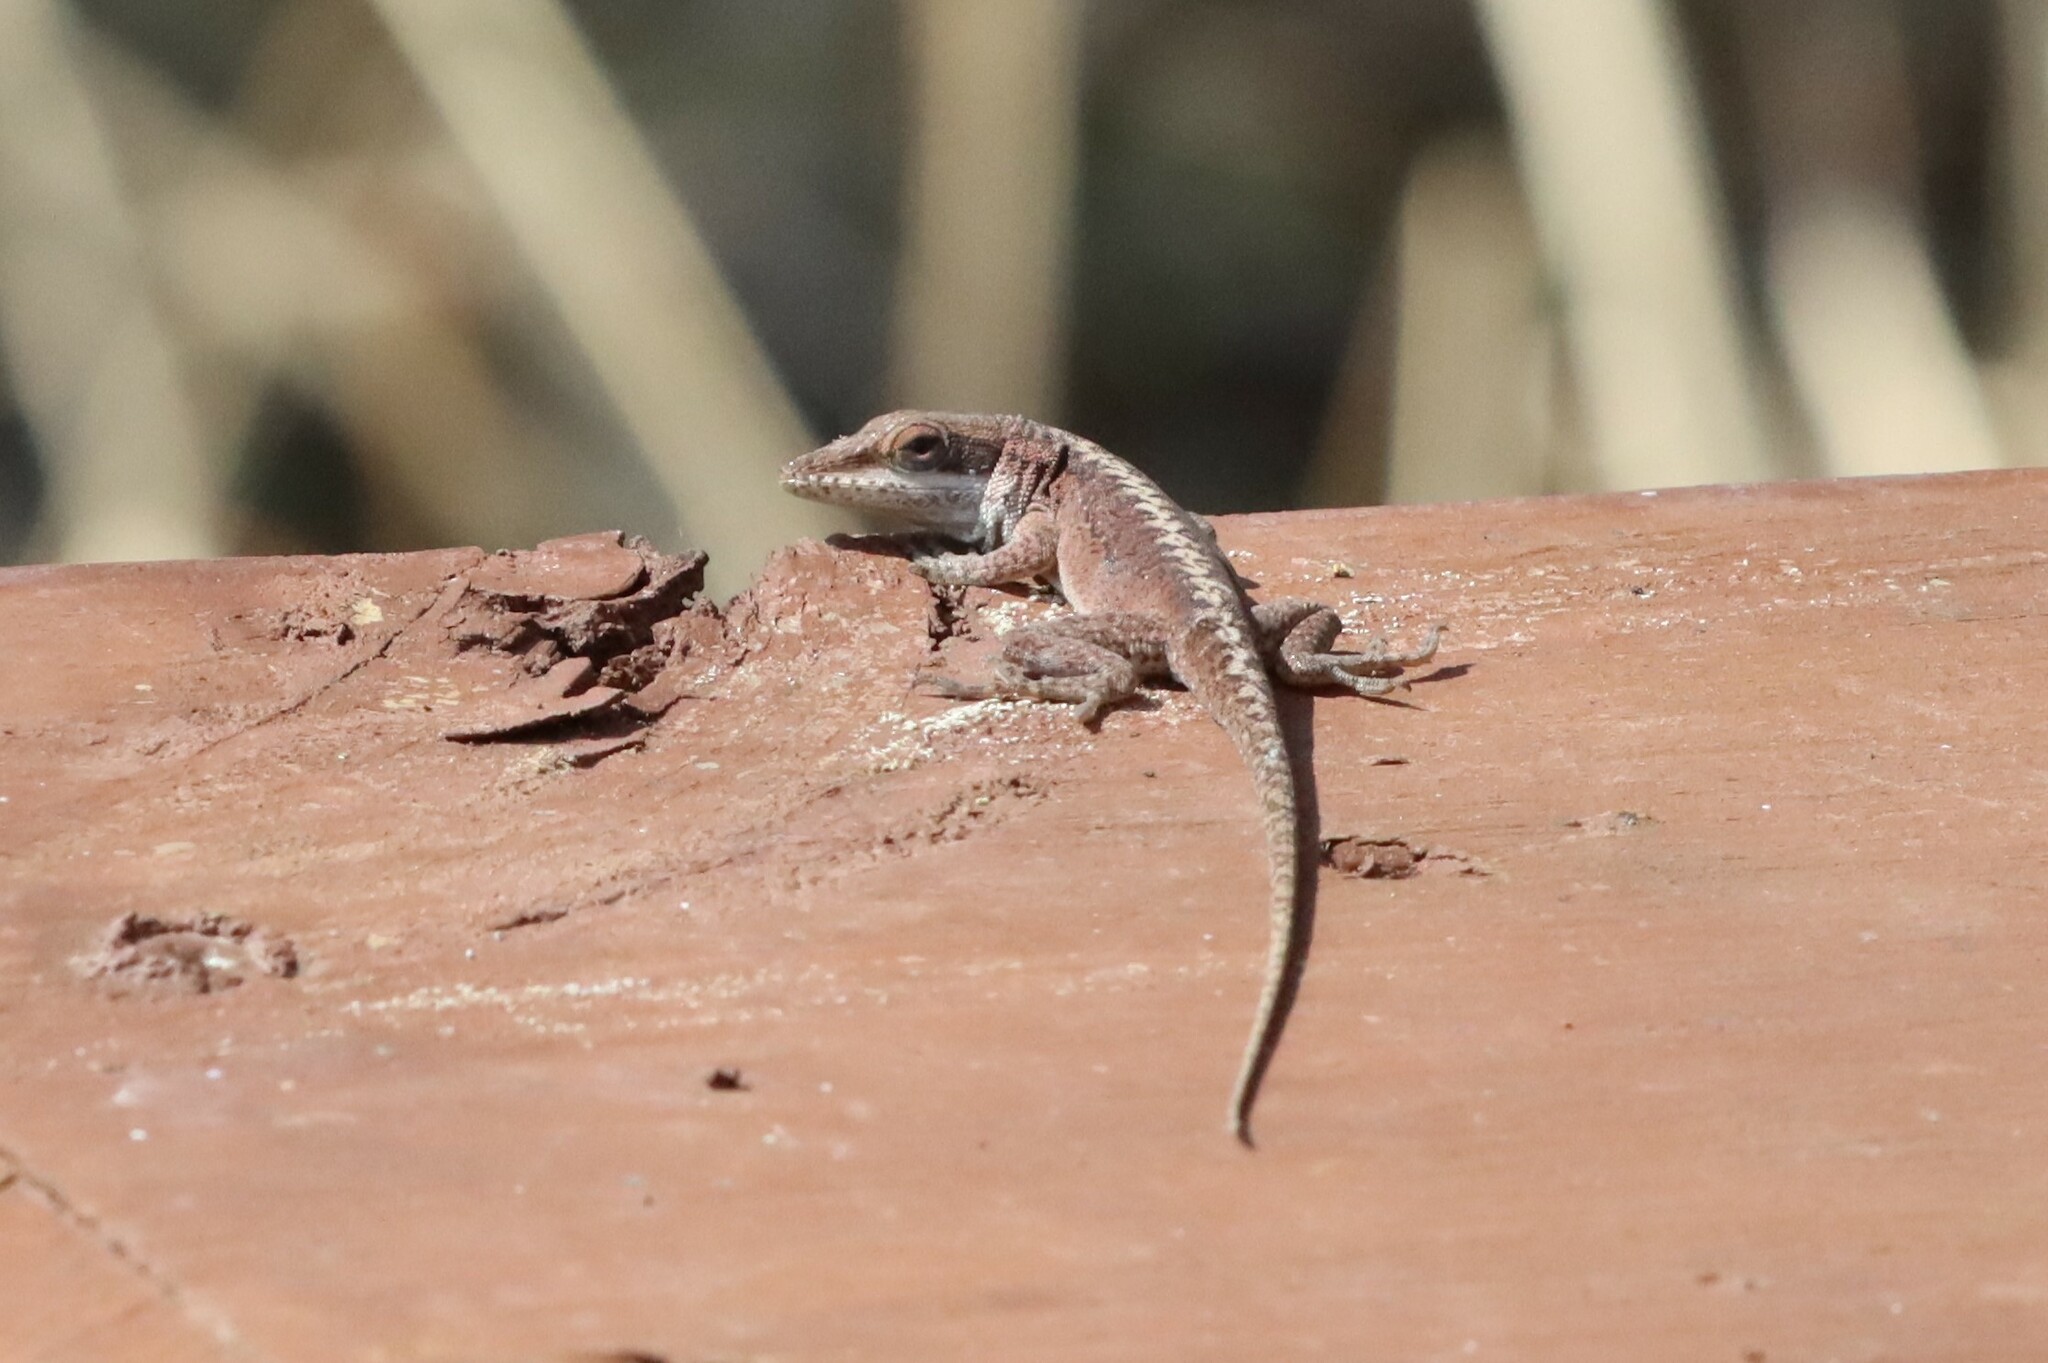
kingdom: Animalia
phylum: Chordata
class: Squamata
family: Dactyloidae
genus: Anolis
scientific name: Anolis carolinensis
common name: Green anole
